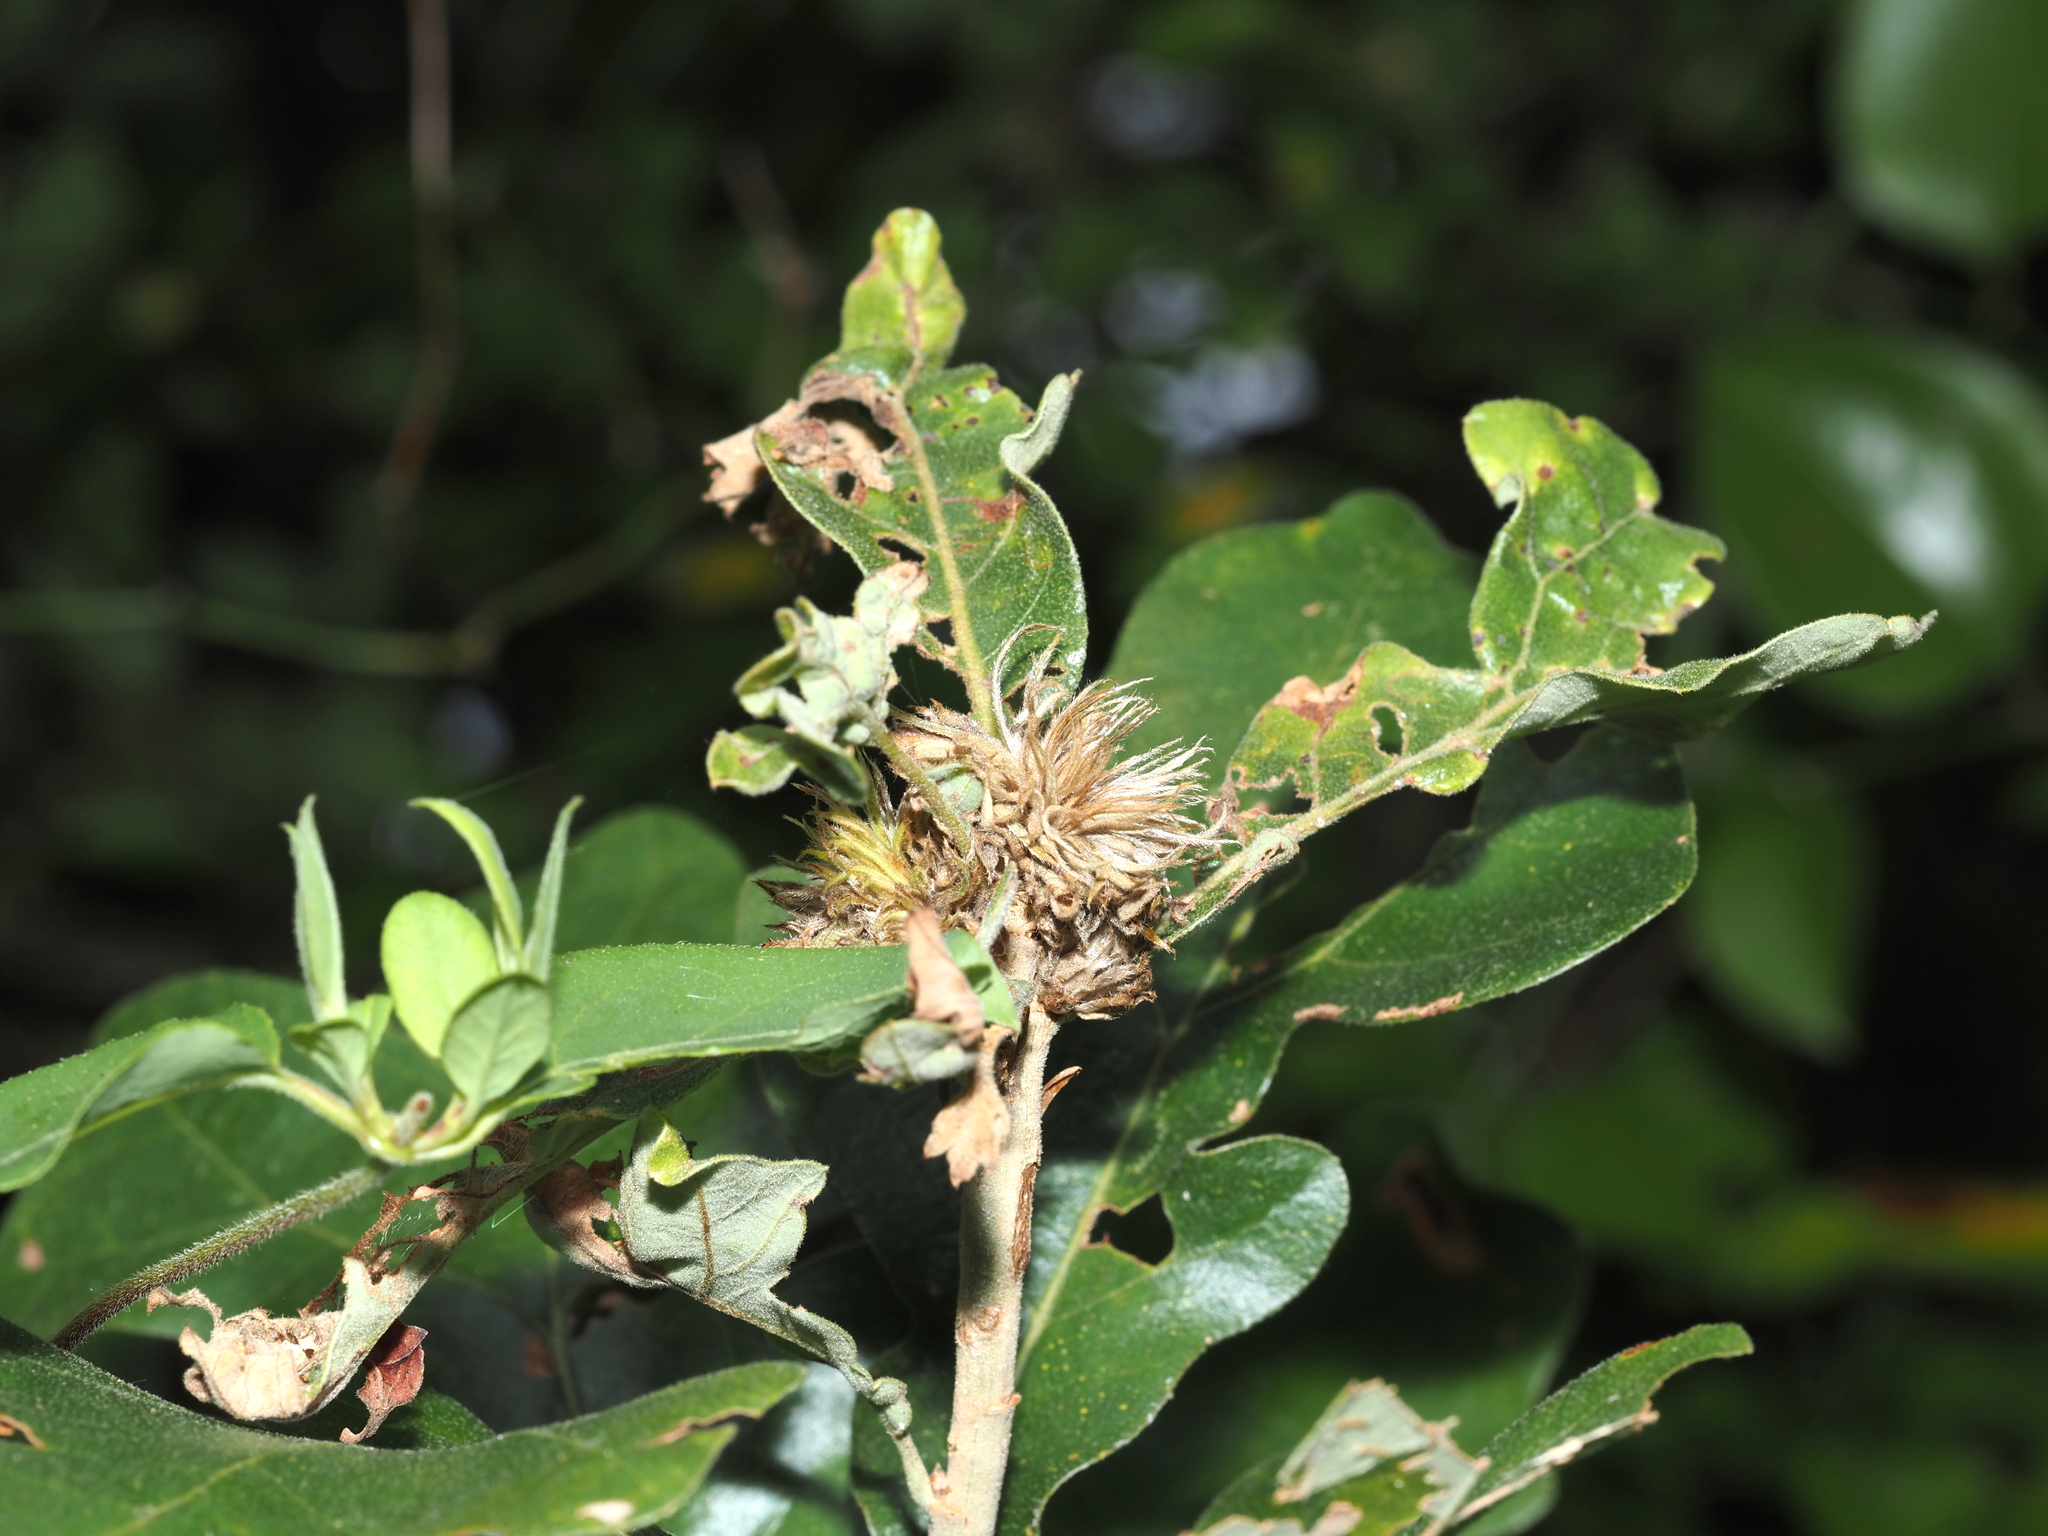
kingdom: Animalia
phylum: Arthropoda
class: Insecta
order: Hymenoptera
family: Cynipidae
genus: Andricus
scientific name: Andricus
